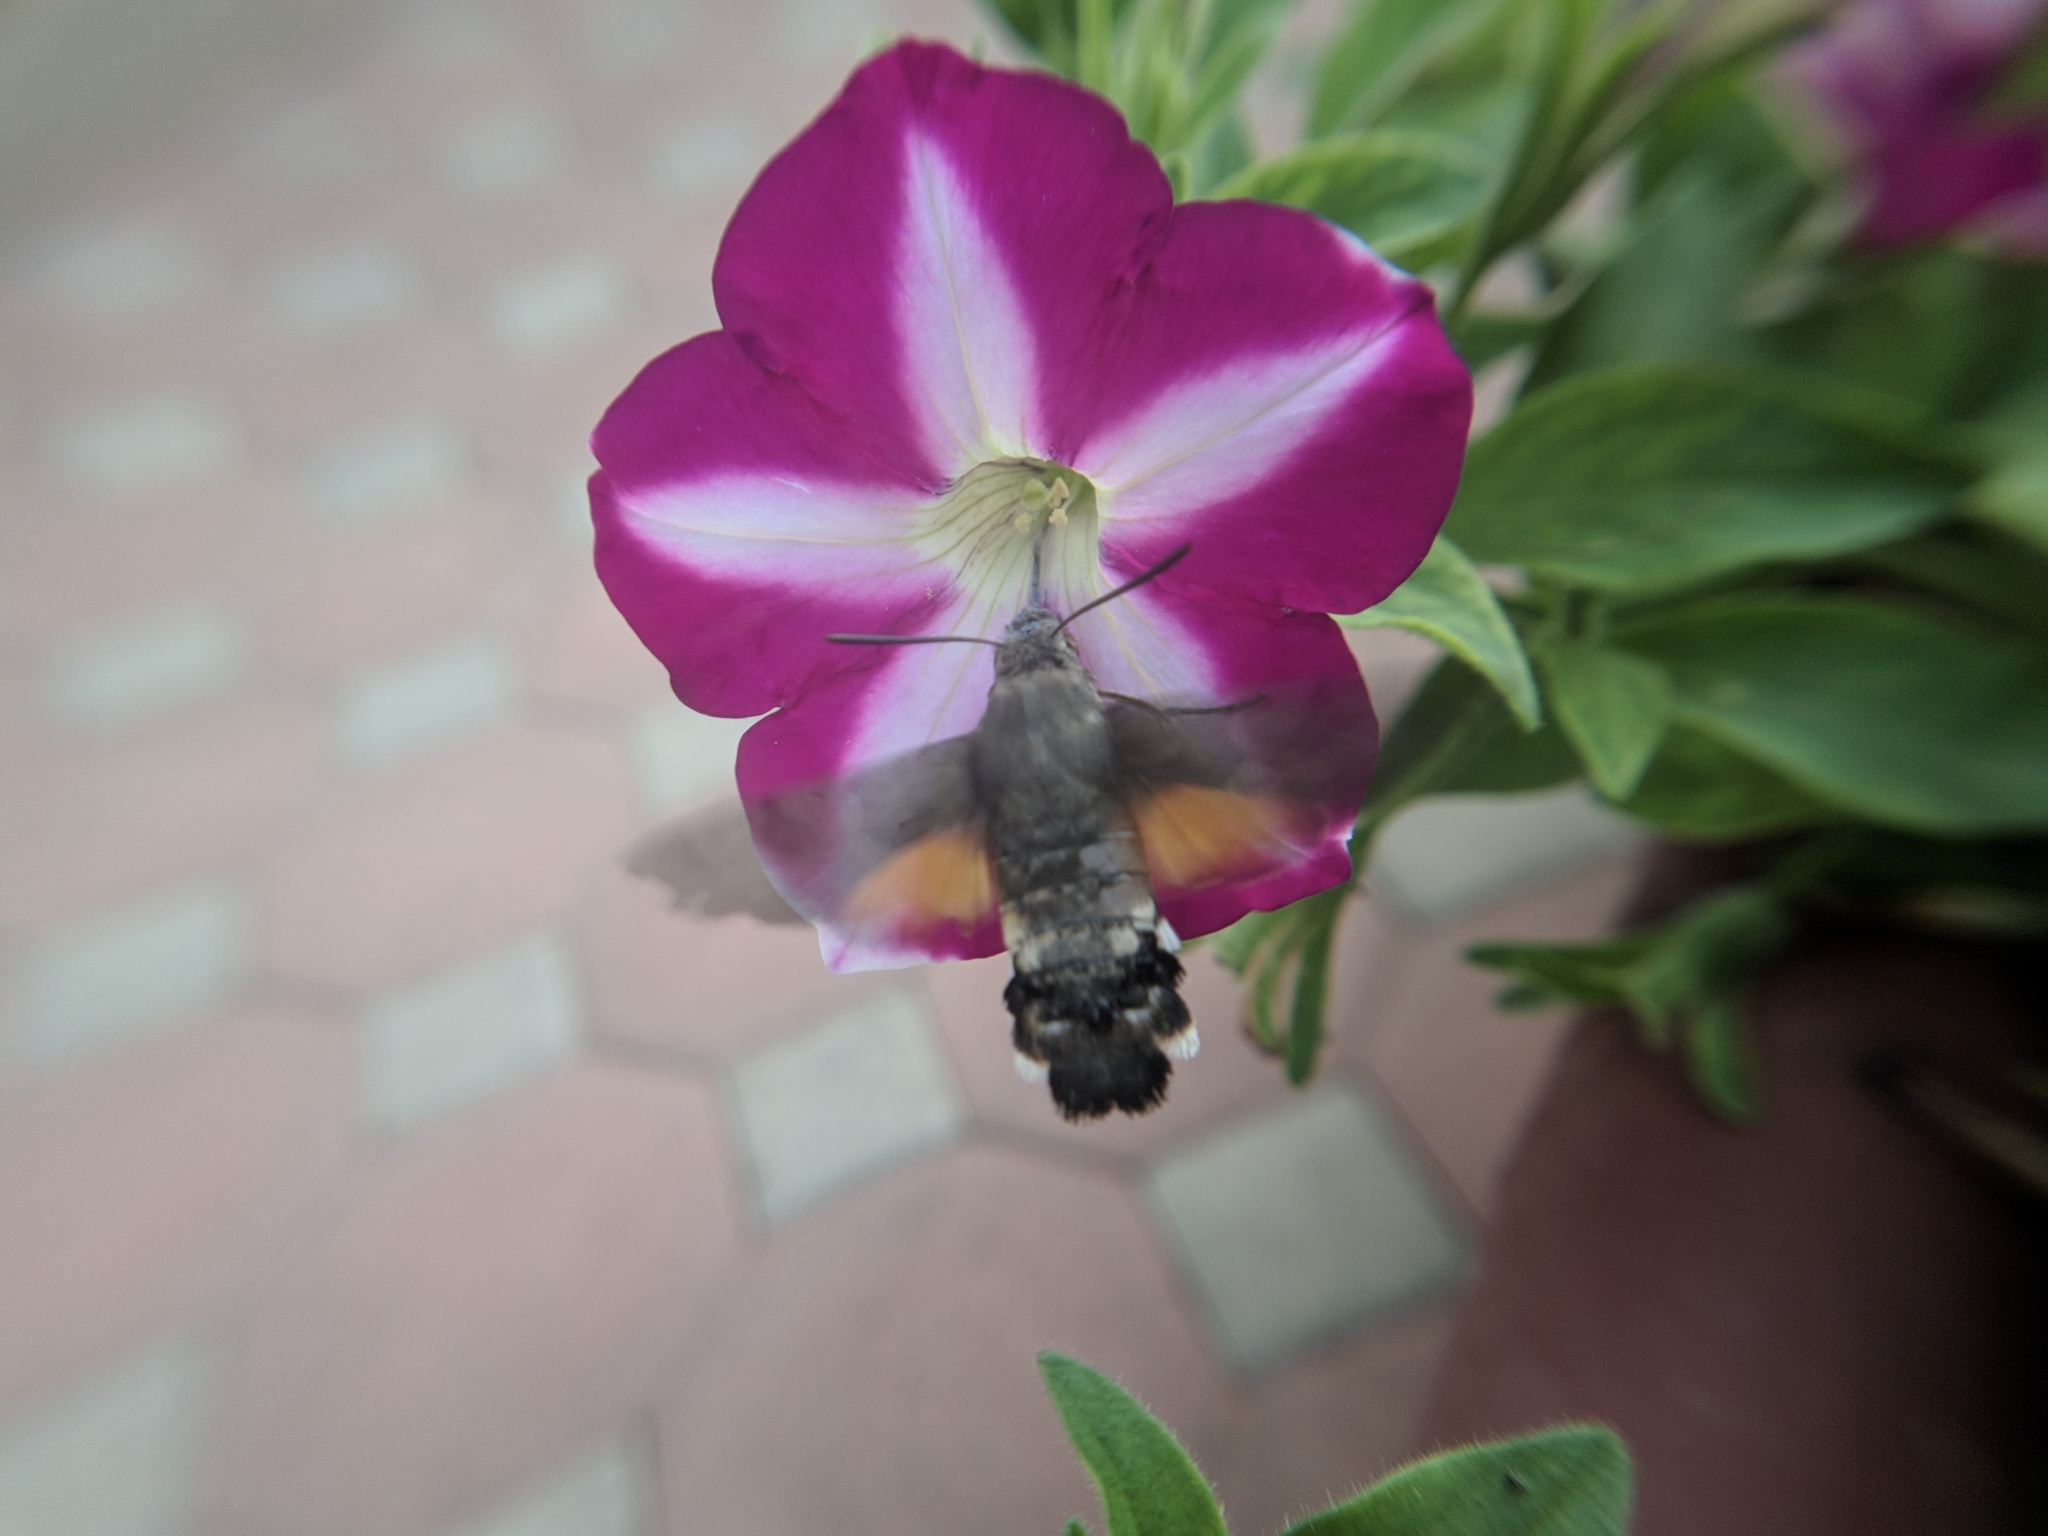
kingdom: Animalia
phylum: Arthropoda
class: Insecta
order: Lepidoptera
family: Sphingidae
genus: Macroglossum
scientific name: Macroglossum stellatarum
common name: Humming-bird hawk-moth
